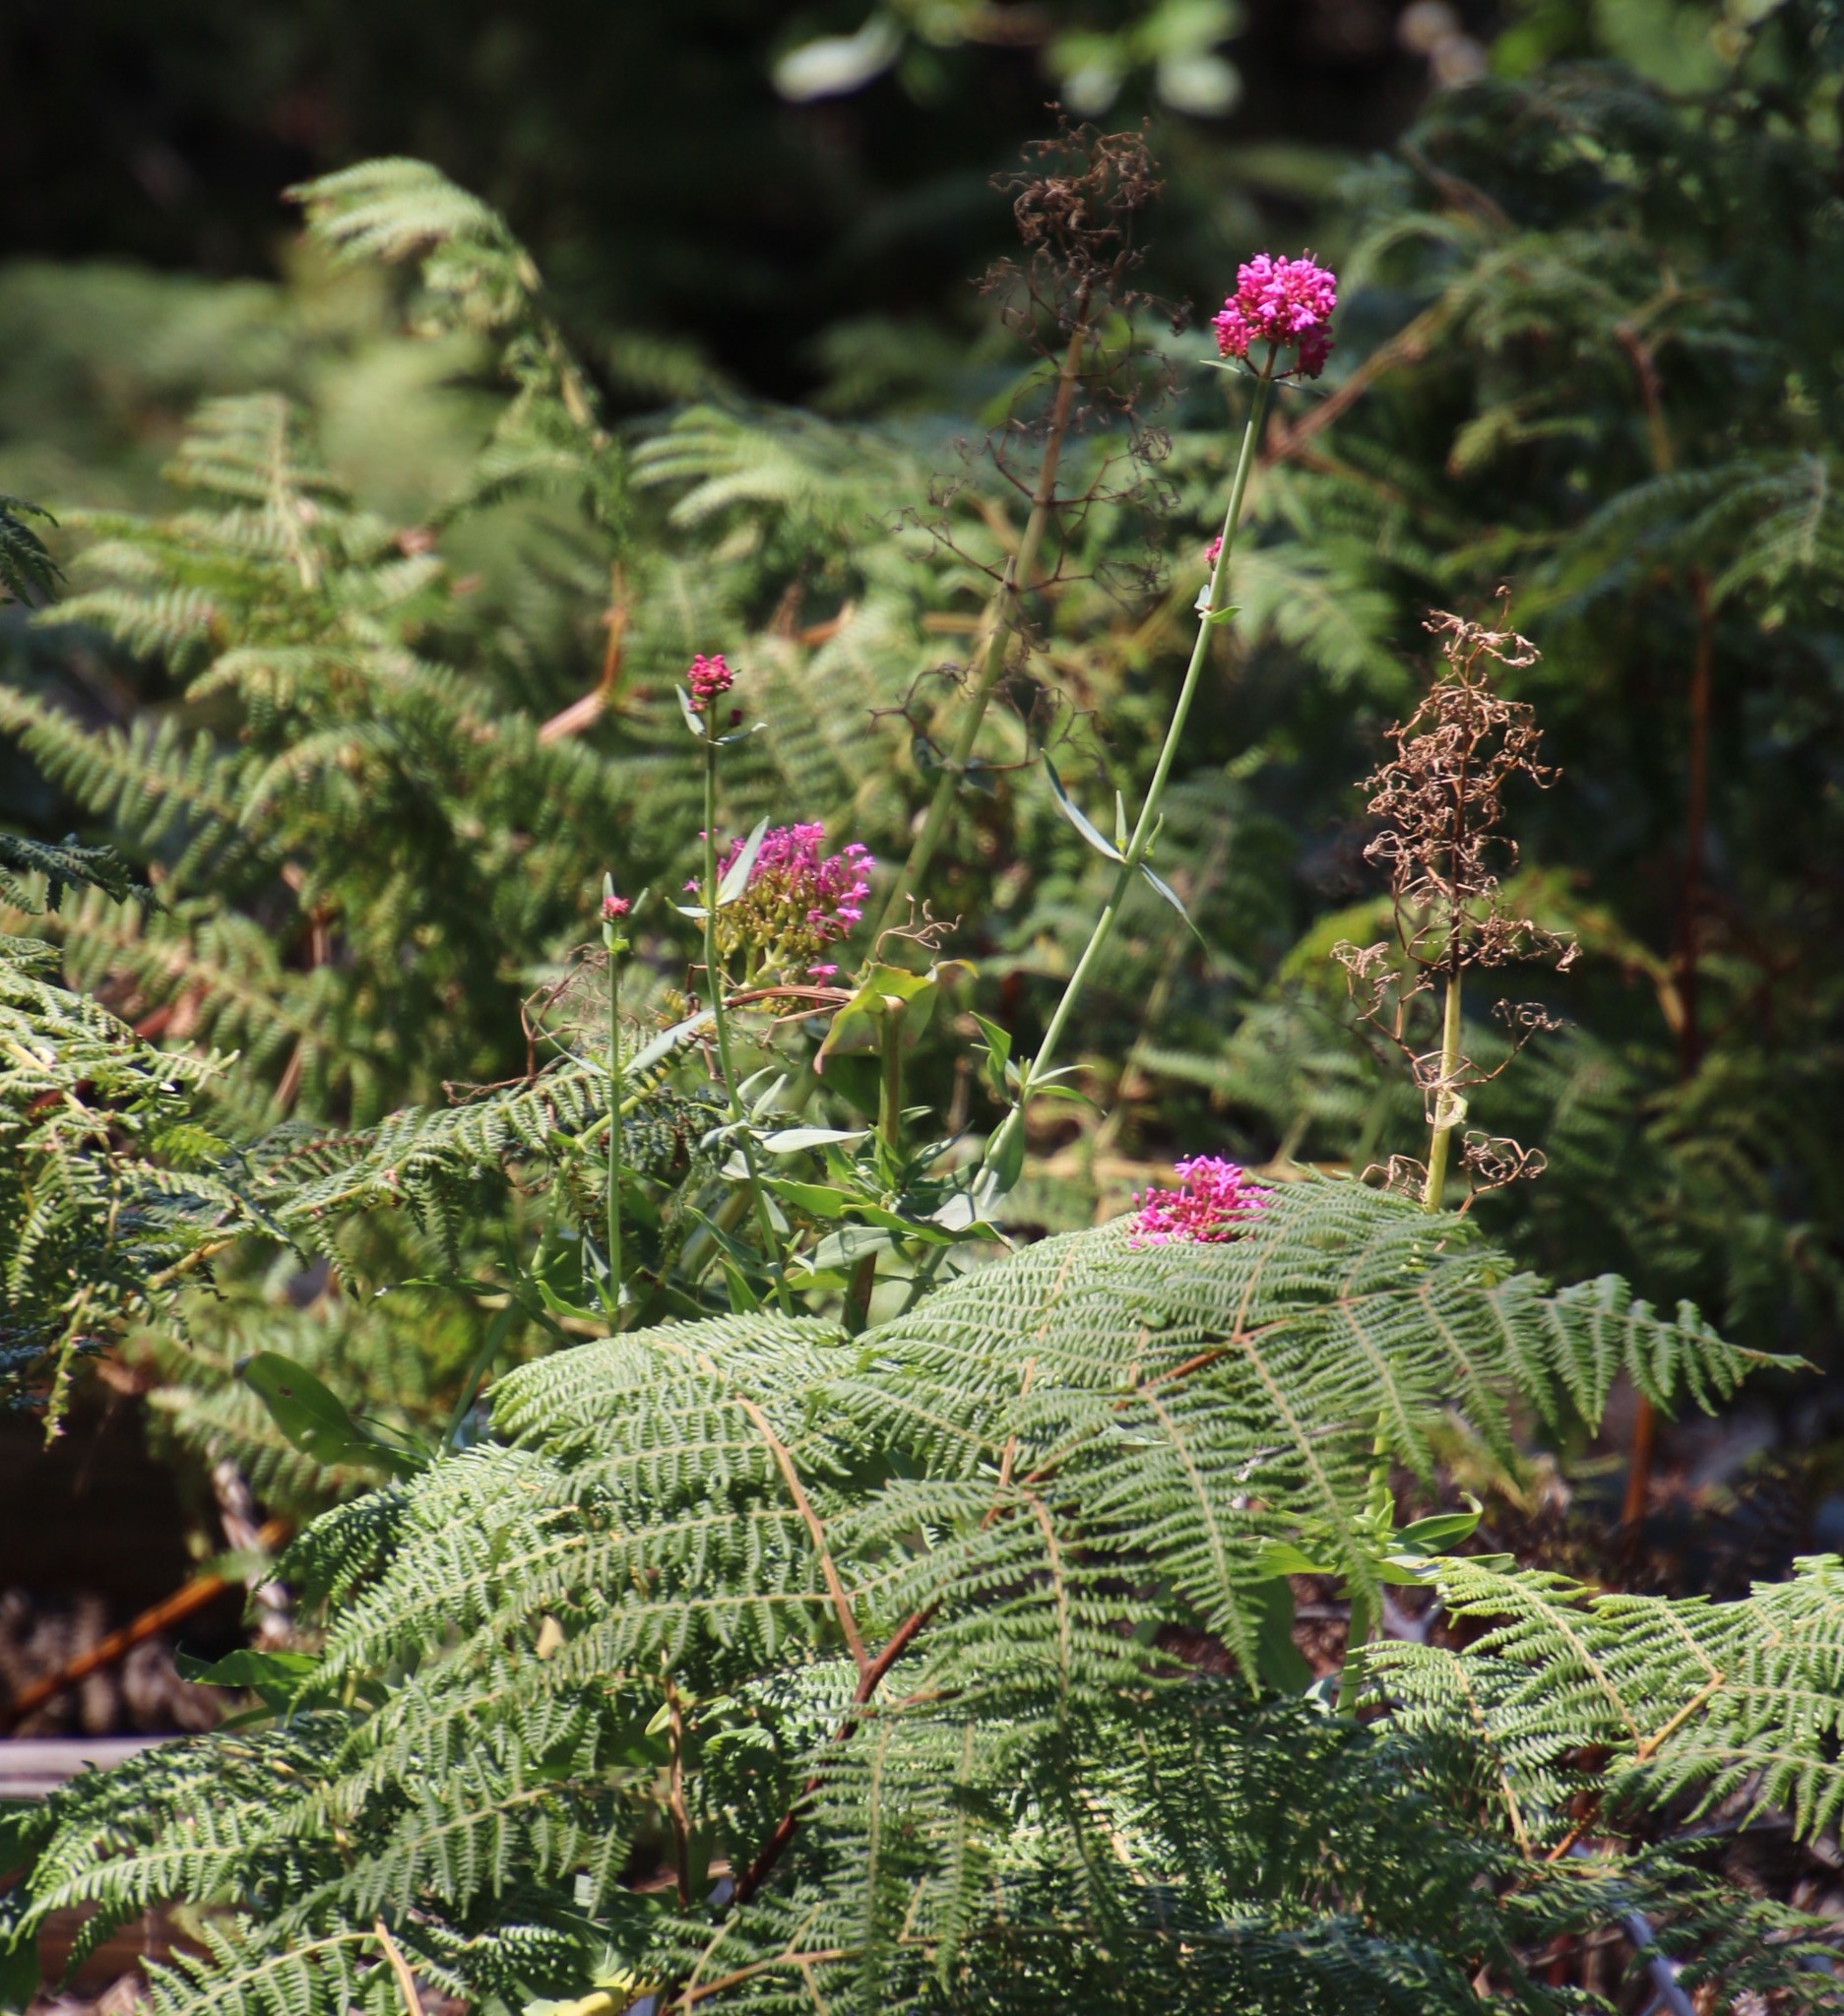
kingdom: Plantae
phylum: Tracheophyta
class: Magnoliopsida
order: Dipsacales
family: Caprifoliaceae
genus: Centranthus
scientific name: Centranthus ruber
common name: Red valerian
